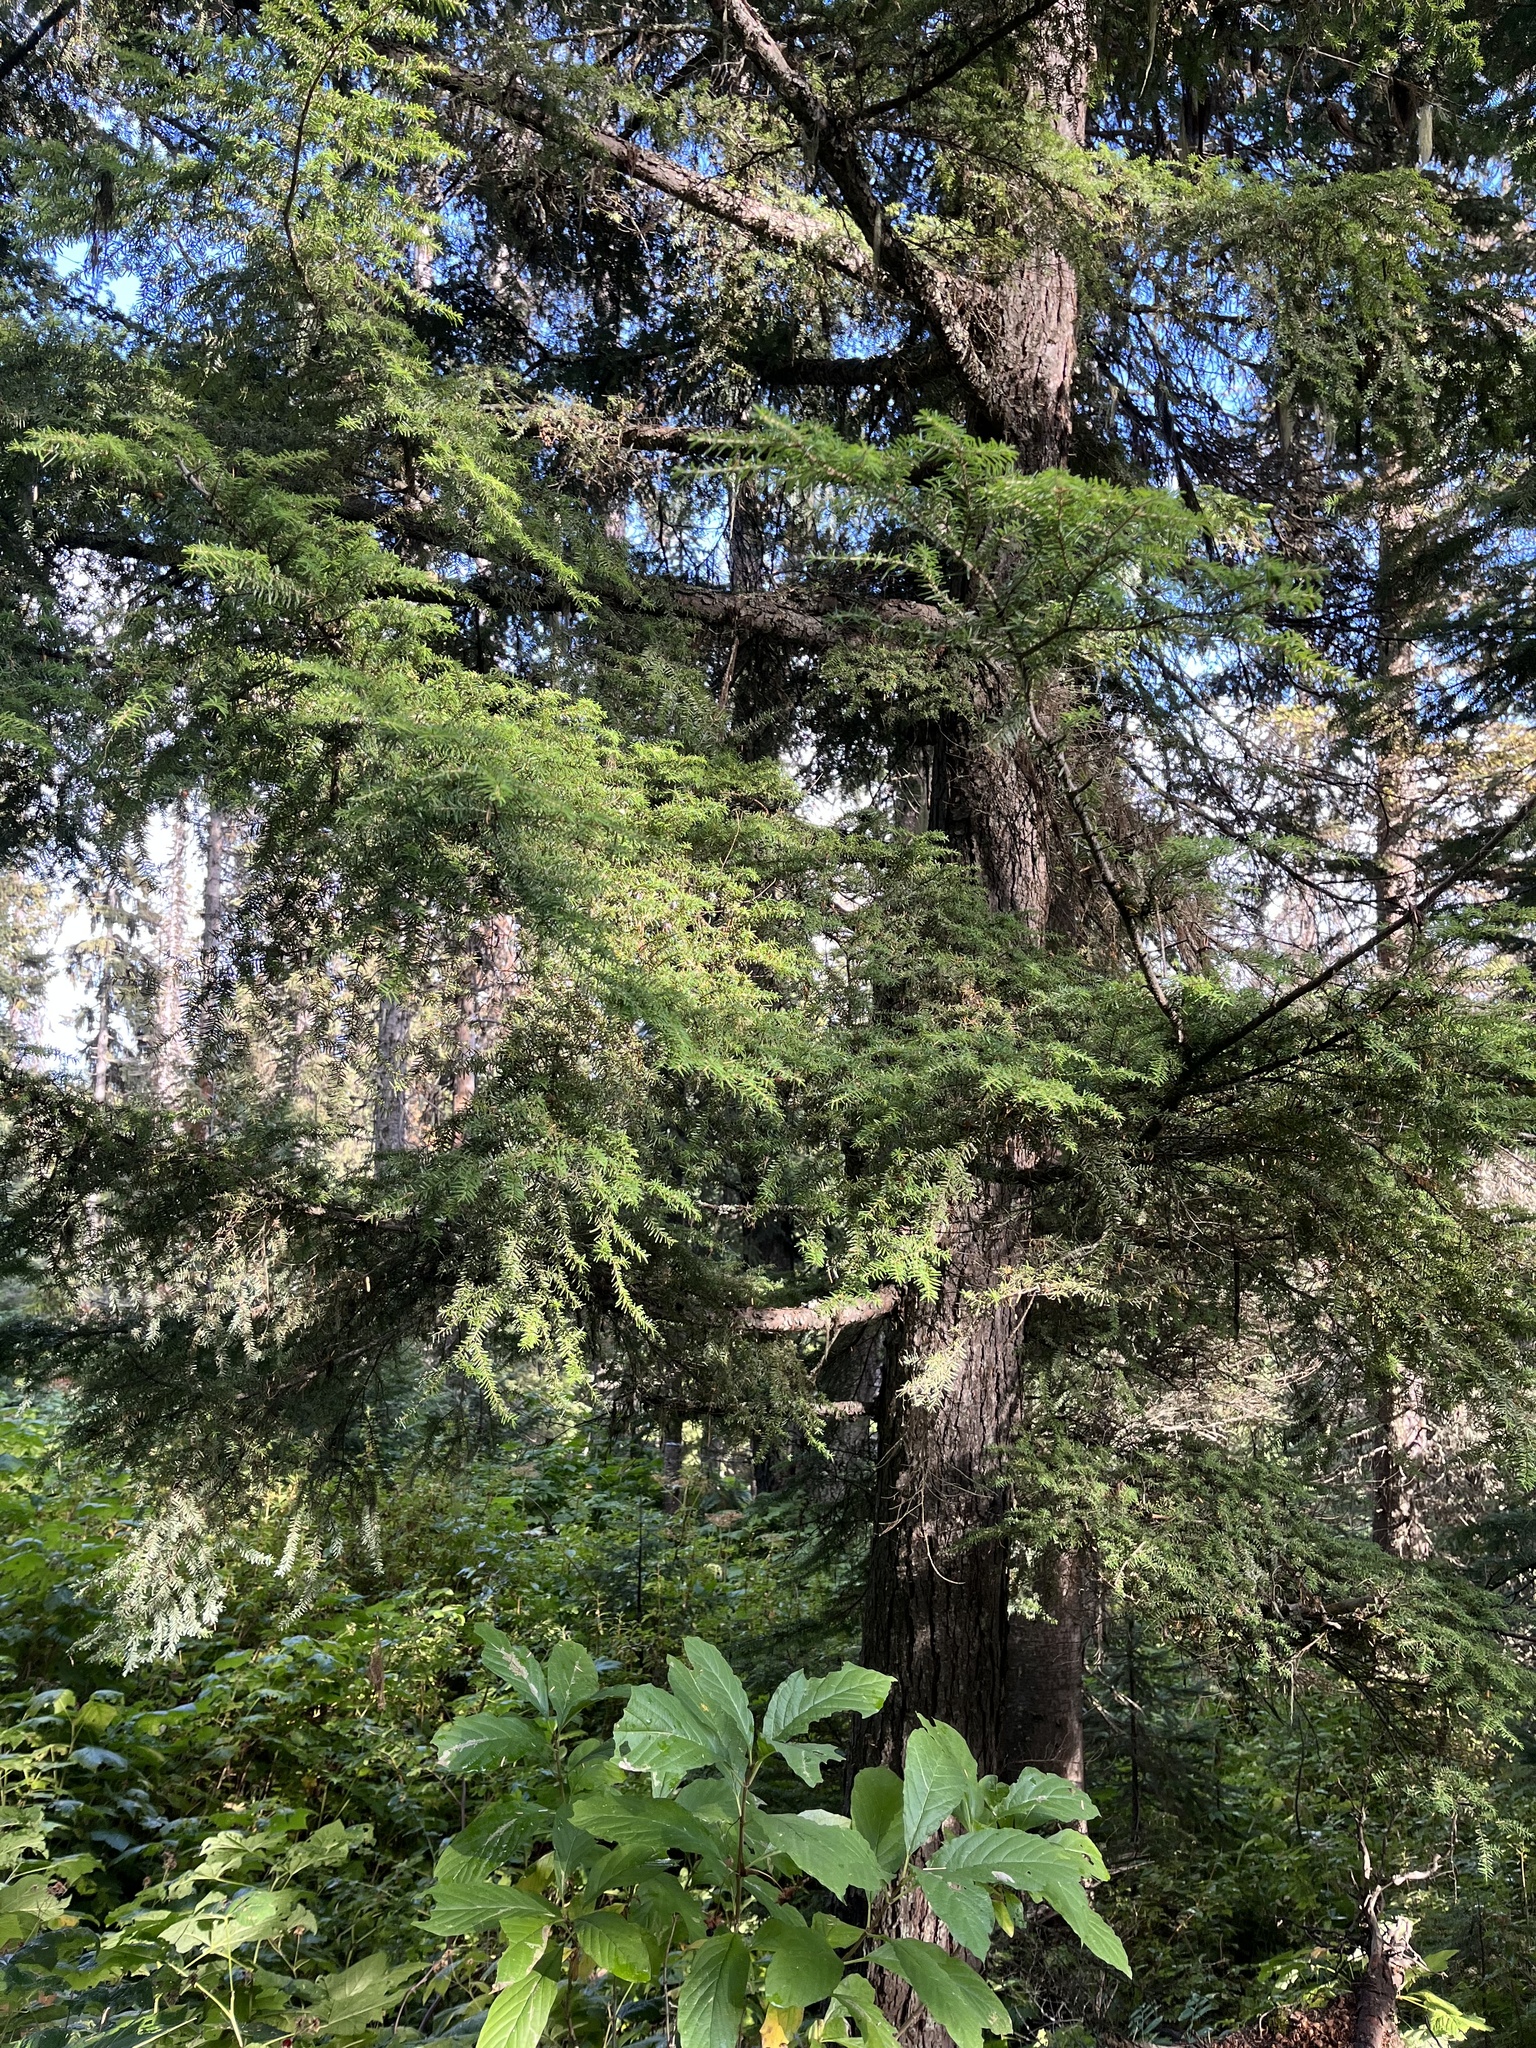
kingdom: Plantae
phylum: Tracheophyta
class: Pinopsida
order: Pinales
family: Pinaceae
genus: Tsuga
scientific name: Tsuga heterophylla
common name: Western hemlock
